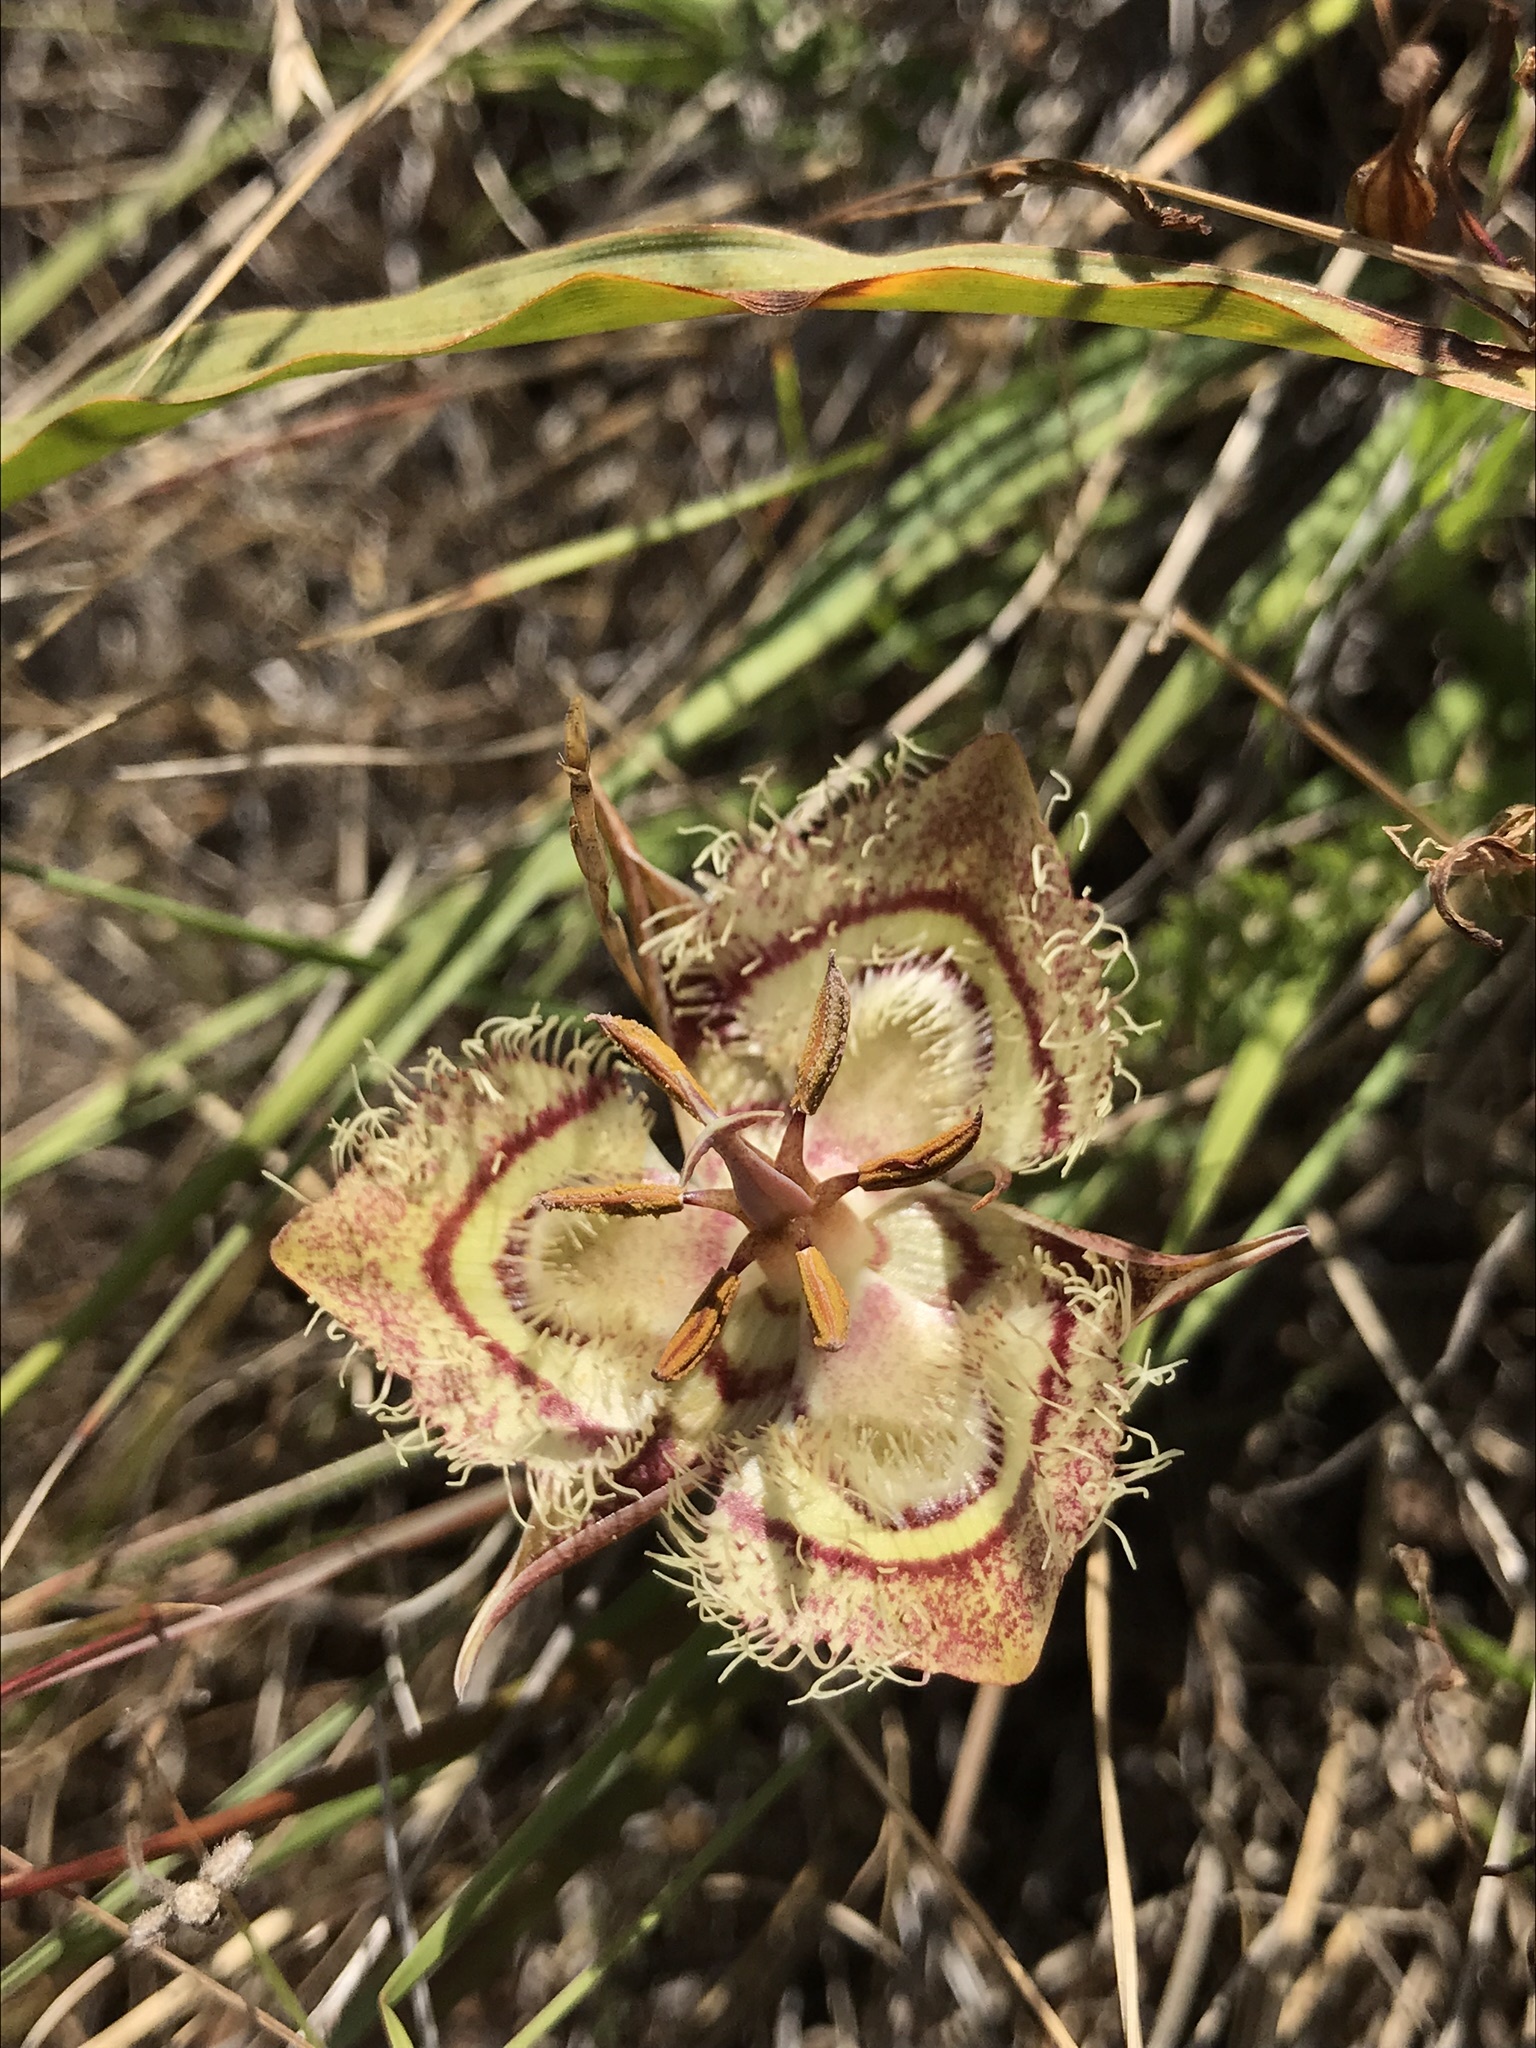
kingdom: Plantae
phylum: Tracheophyta
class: Liliopsida
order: Liliales
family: Liliaceae
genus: Calochortus
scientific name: Calochortus tiburonensis
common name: Tiburon mariposa-lily
